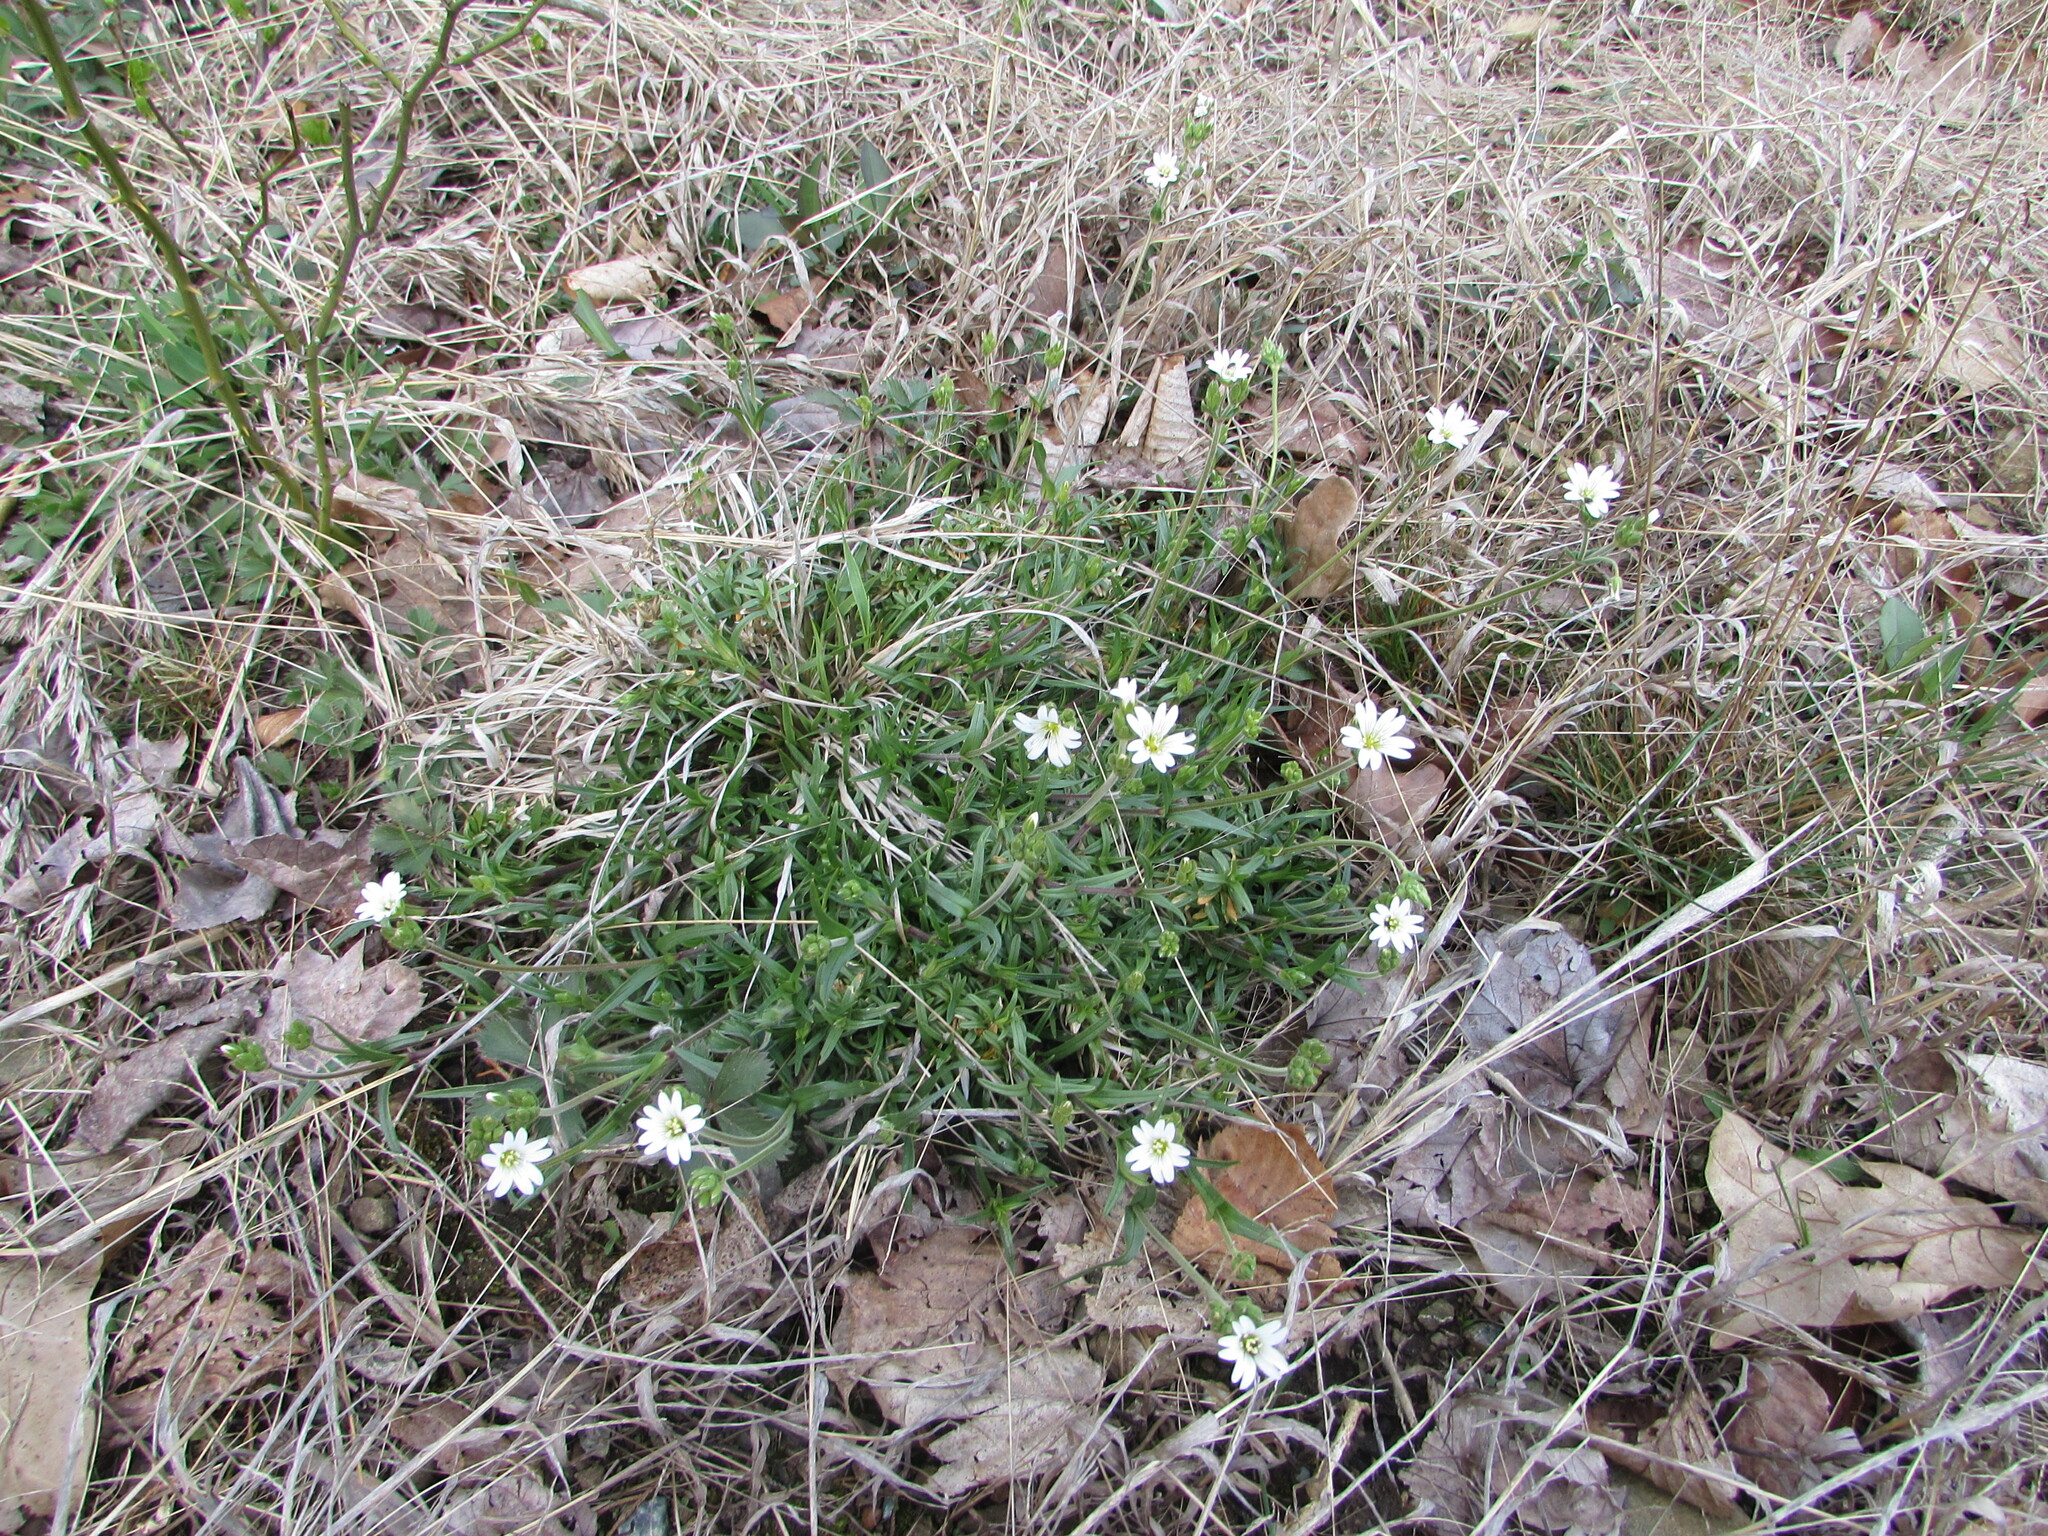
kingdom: Plantae
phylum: Tracheophyta
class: Magnoliopsida
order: Caryophyllales
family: Caryophyllaceae
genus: Cerastium
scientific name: Cerastium velutinum
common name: Barren chickweed
